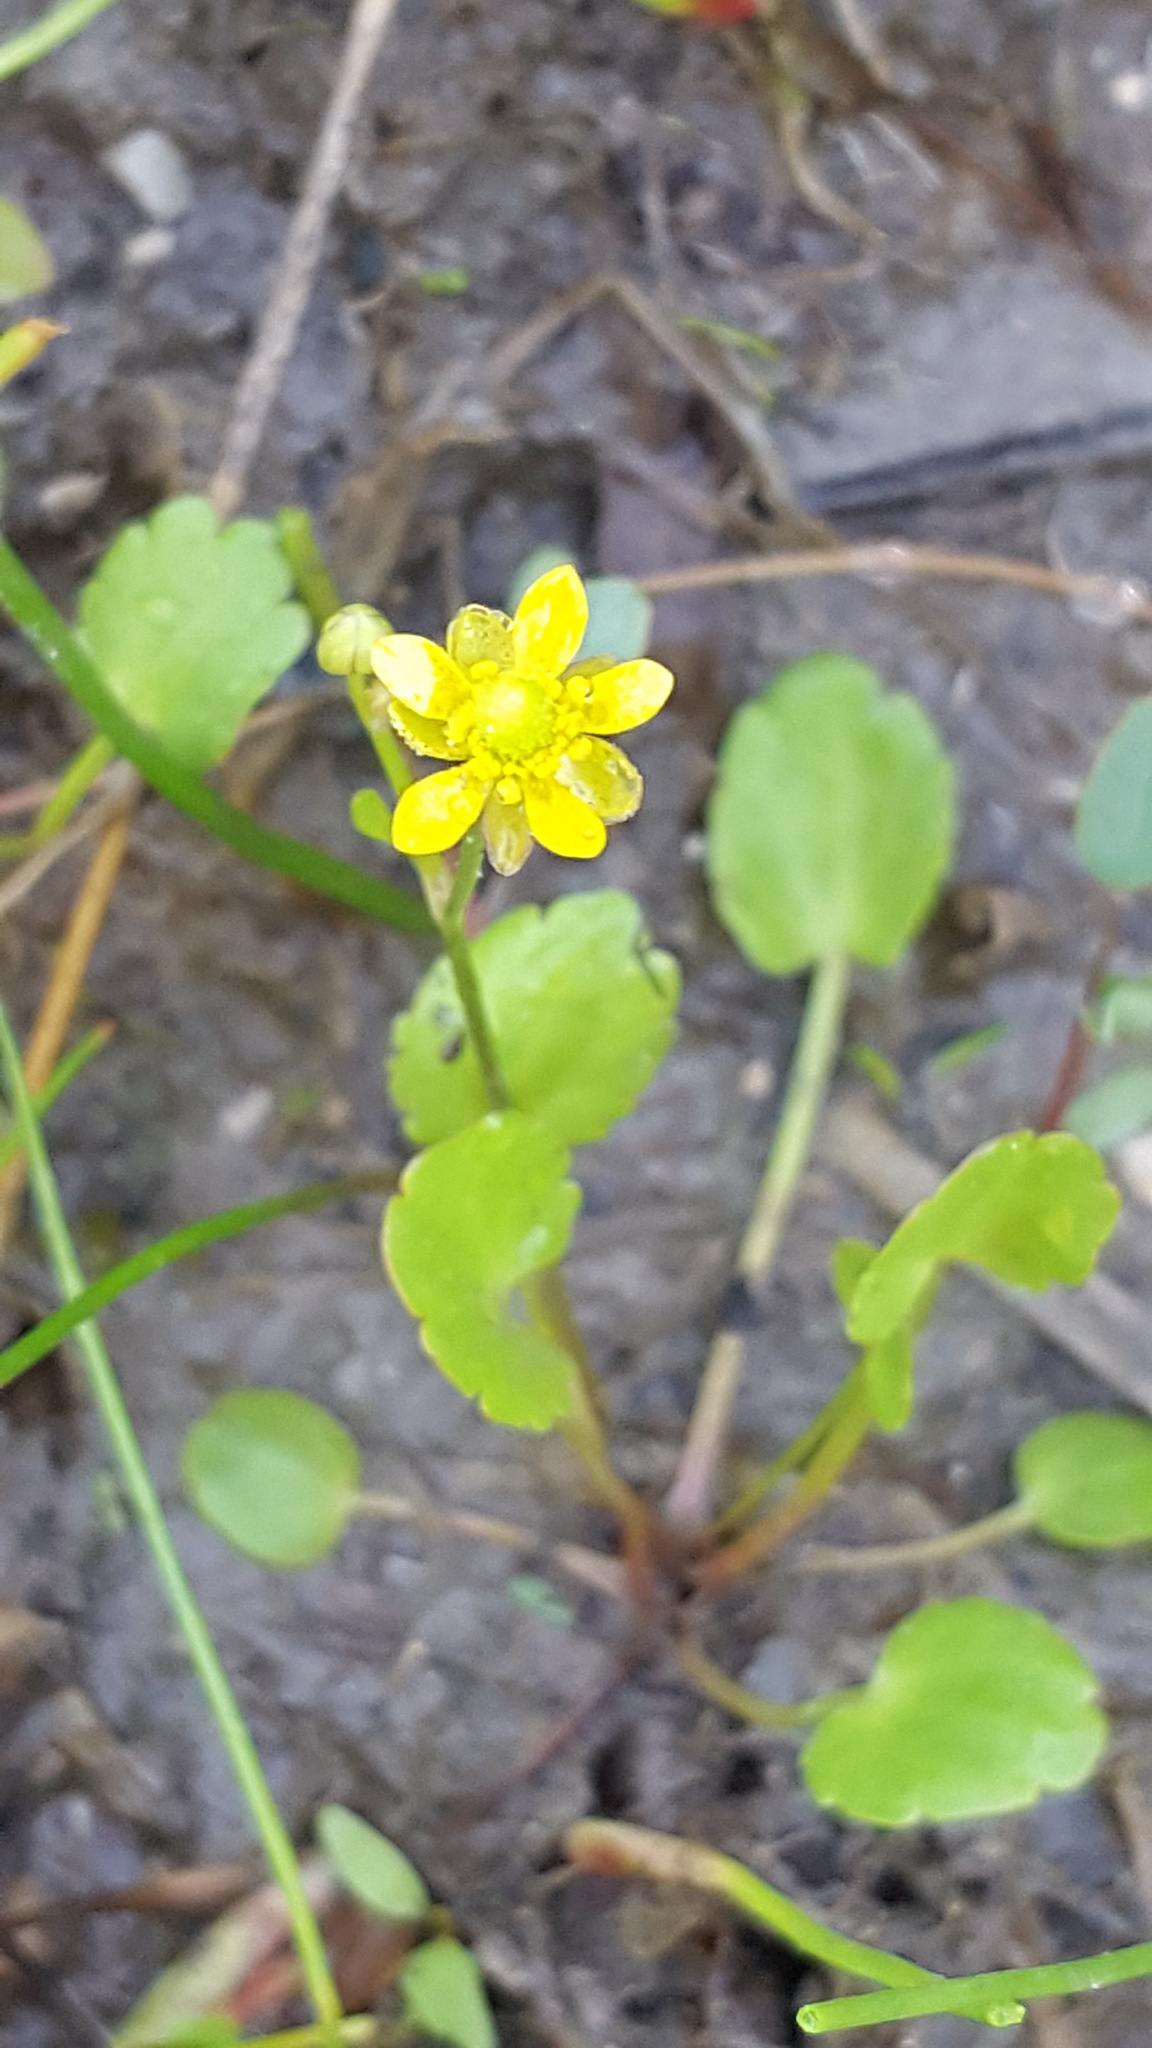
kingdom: Plantae
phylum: Tracheophyta
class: Magnoliopsida
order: Ranunculales
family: Ranunculaceae
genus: Halerpestes
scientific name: Halerpestes cymbalaria
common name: Seaside crowfoot
